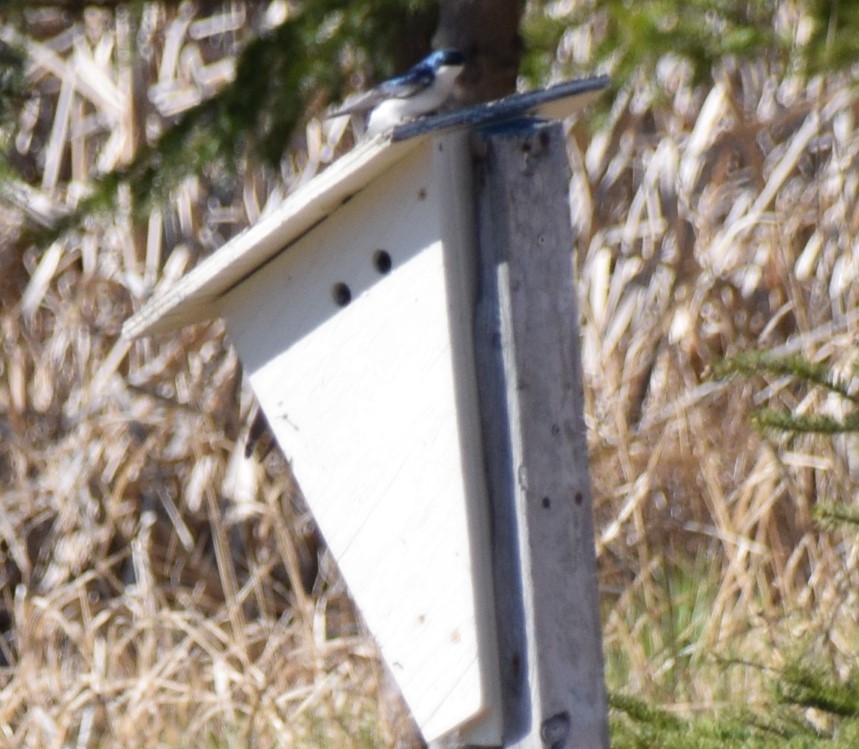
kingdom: Animalia
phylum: Chordata
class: Aves
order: Passeriformes
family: Hirundinidae
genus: Tachycineta
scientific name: Tachycineta bicolor
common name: Tree swallow
